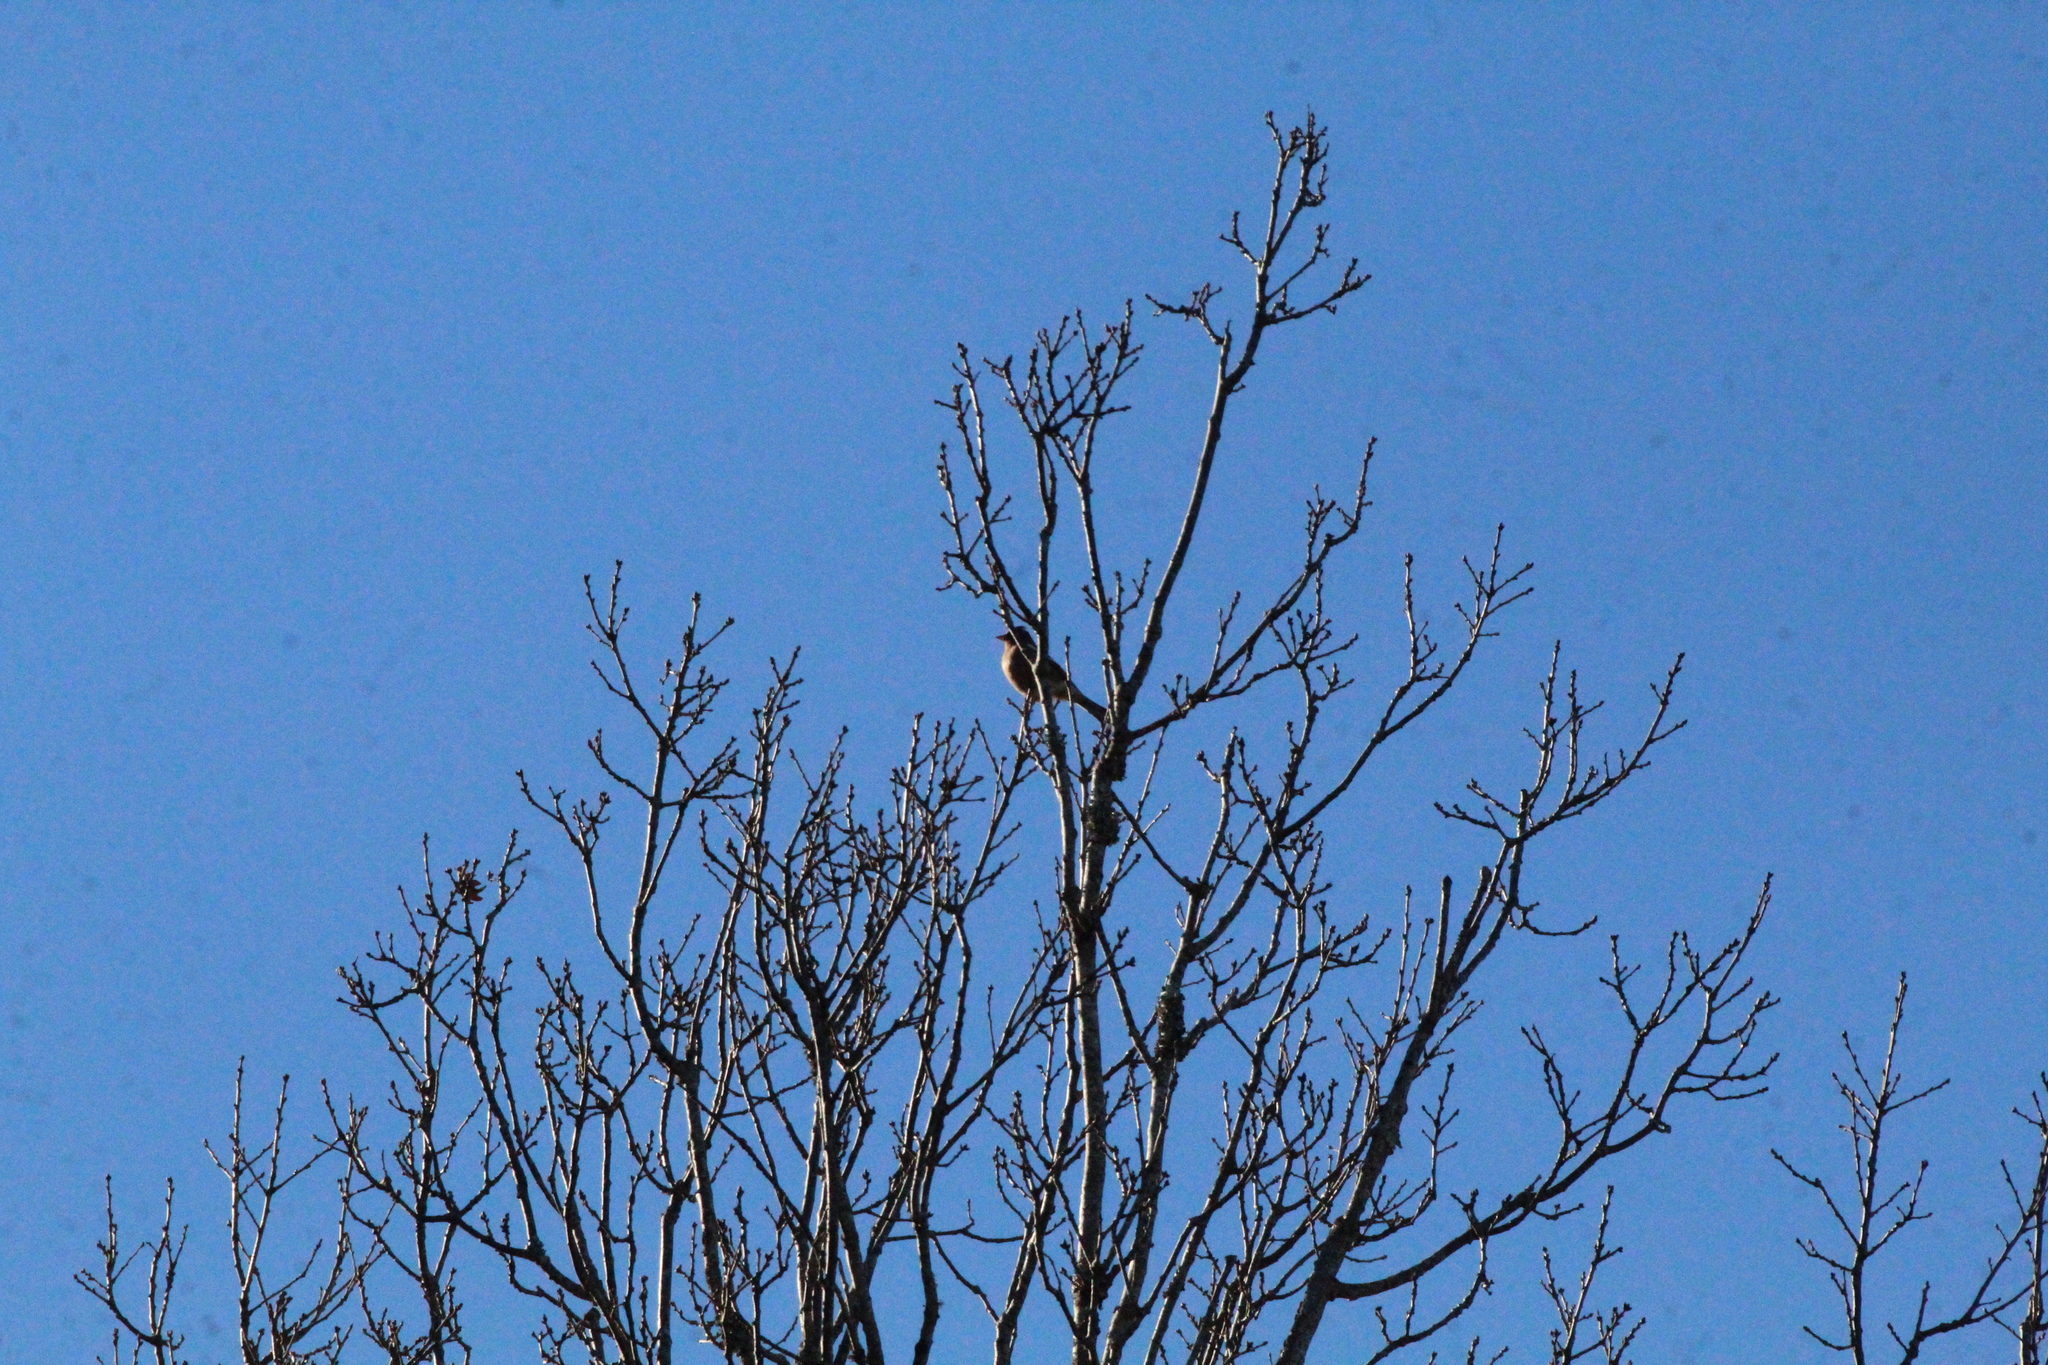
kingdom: Animalia
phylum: Chordata
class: Aves
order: Passeriformes
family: Fringillidae
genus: Fringilla
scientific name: Fringilla coelebs
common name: Common chaffinch
